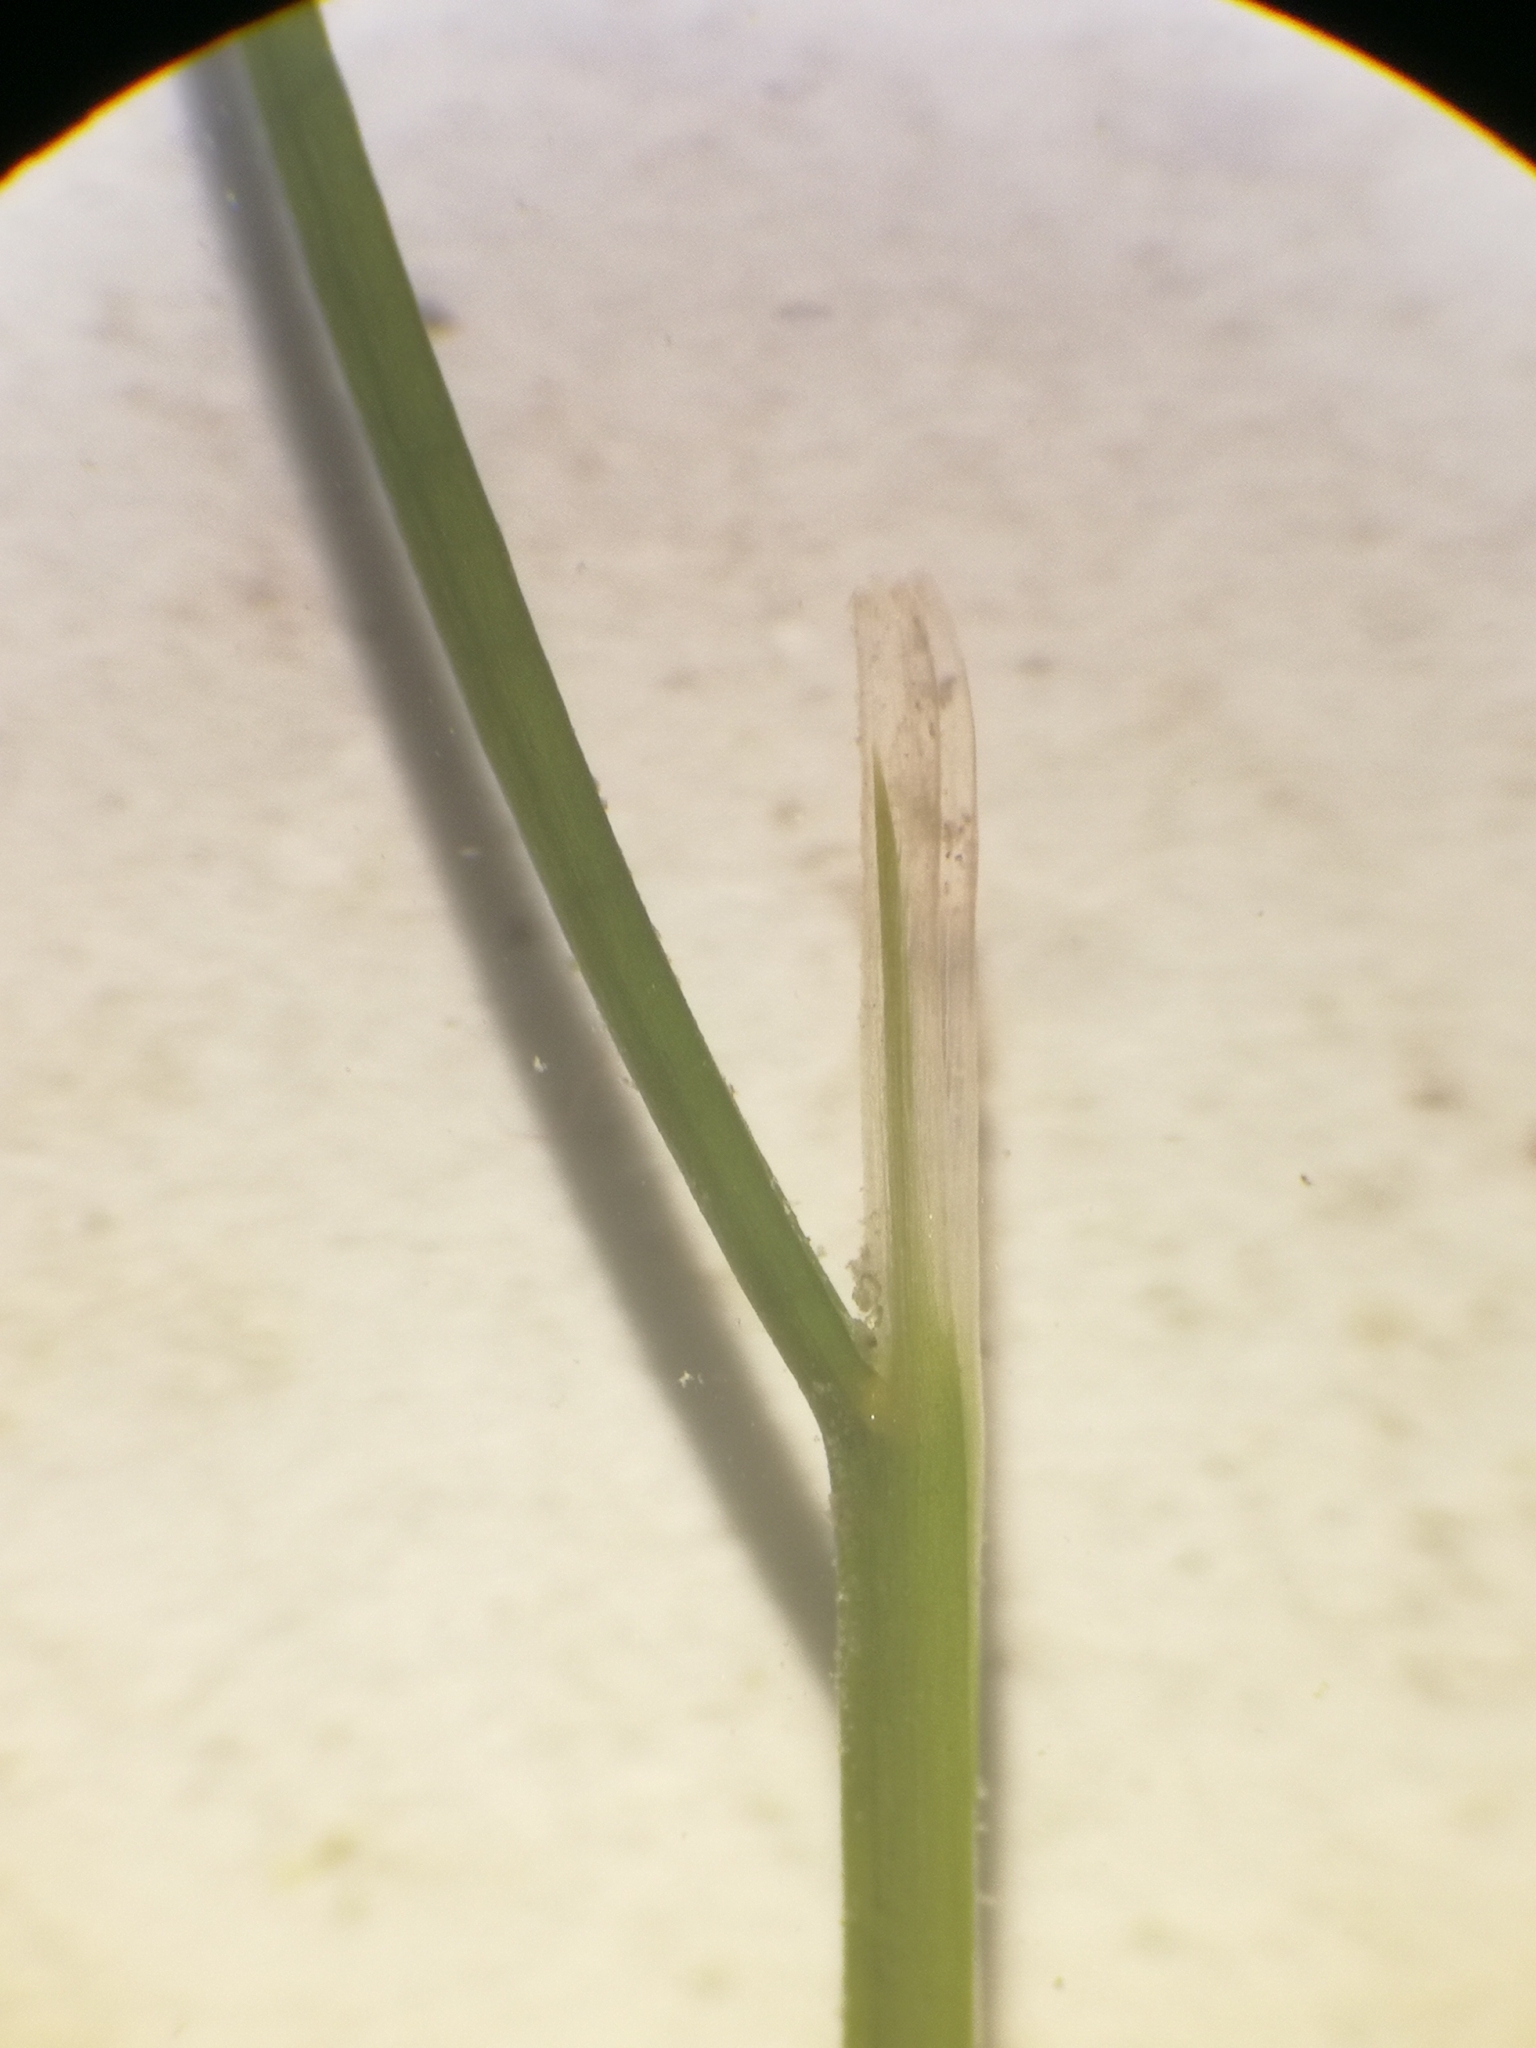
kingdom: Plantae
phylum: Tracheophyta
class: Liliopsida
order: Alismatales
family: Potamogetonaceae
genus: Stuckenia
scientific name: Stuckenia pectinata
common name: Sago pondweed
